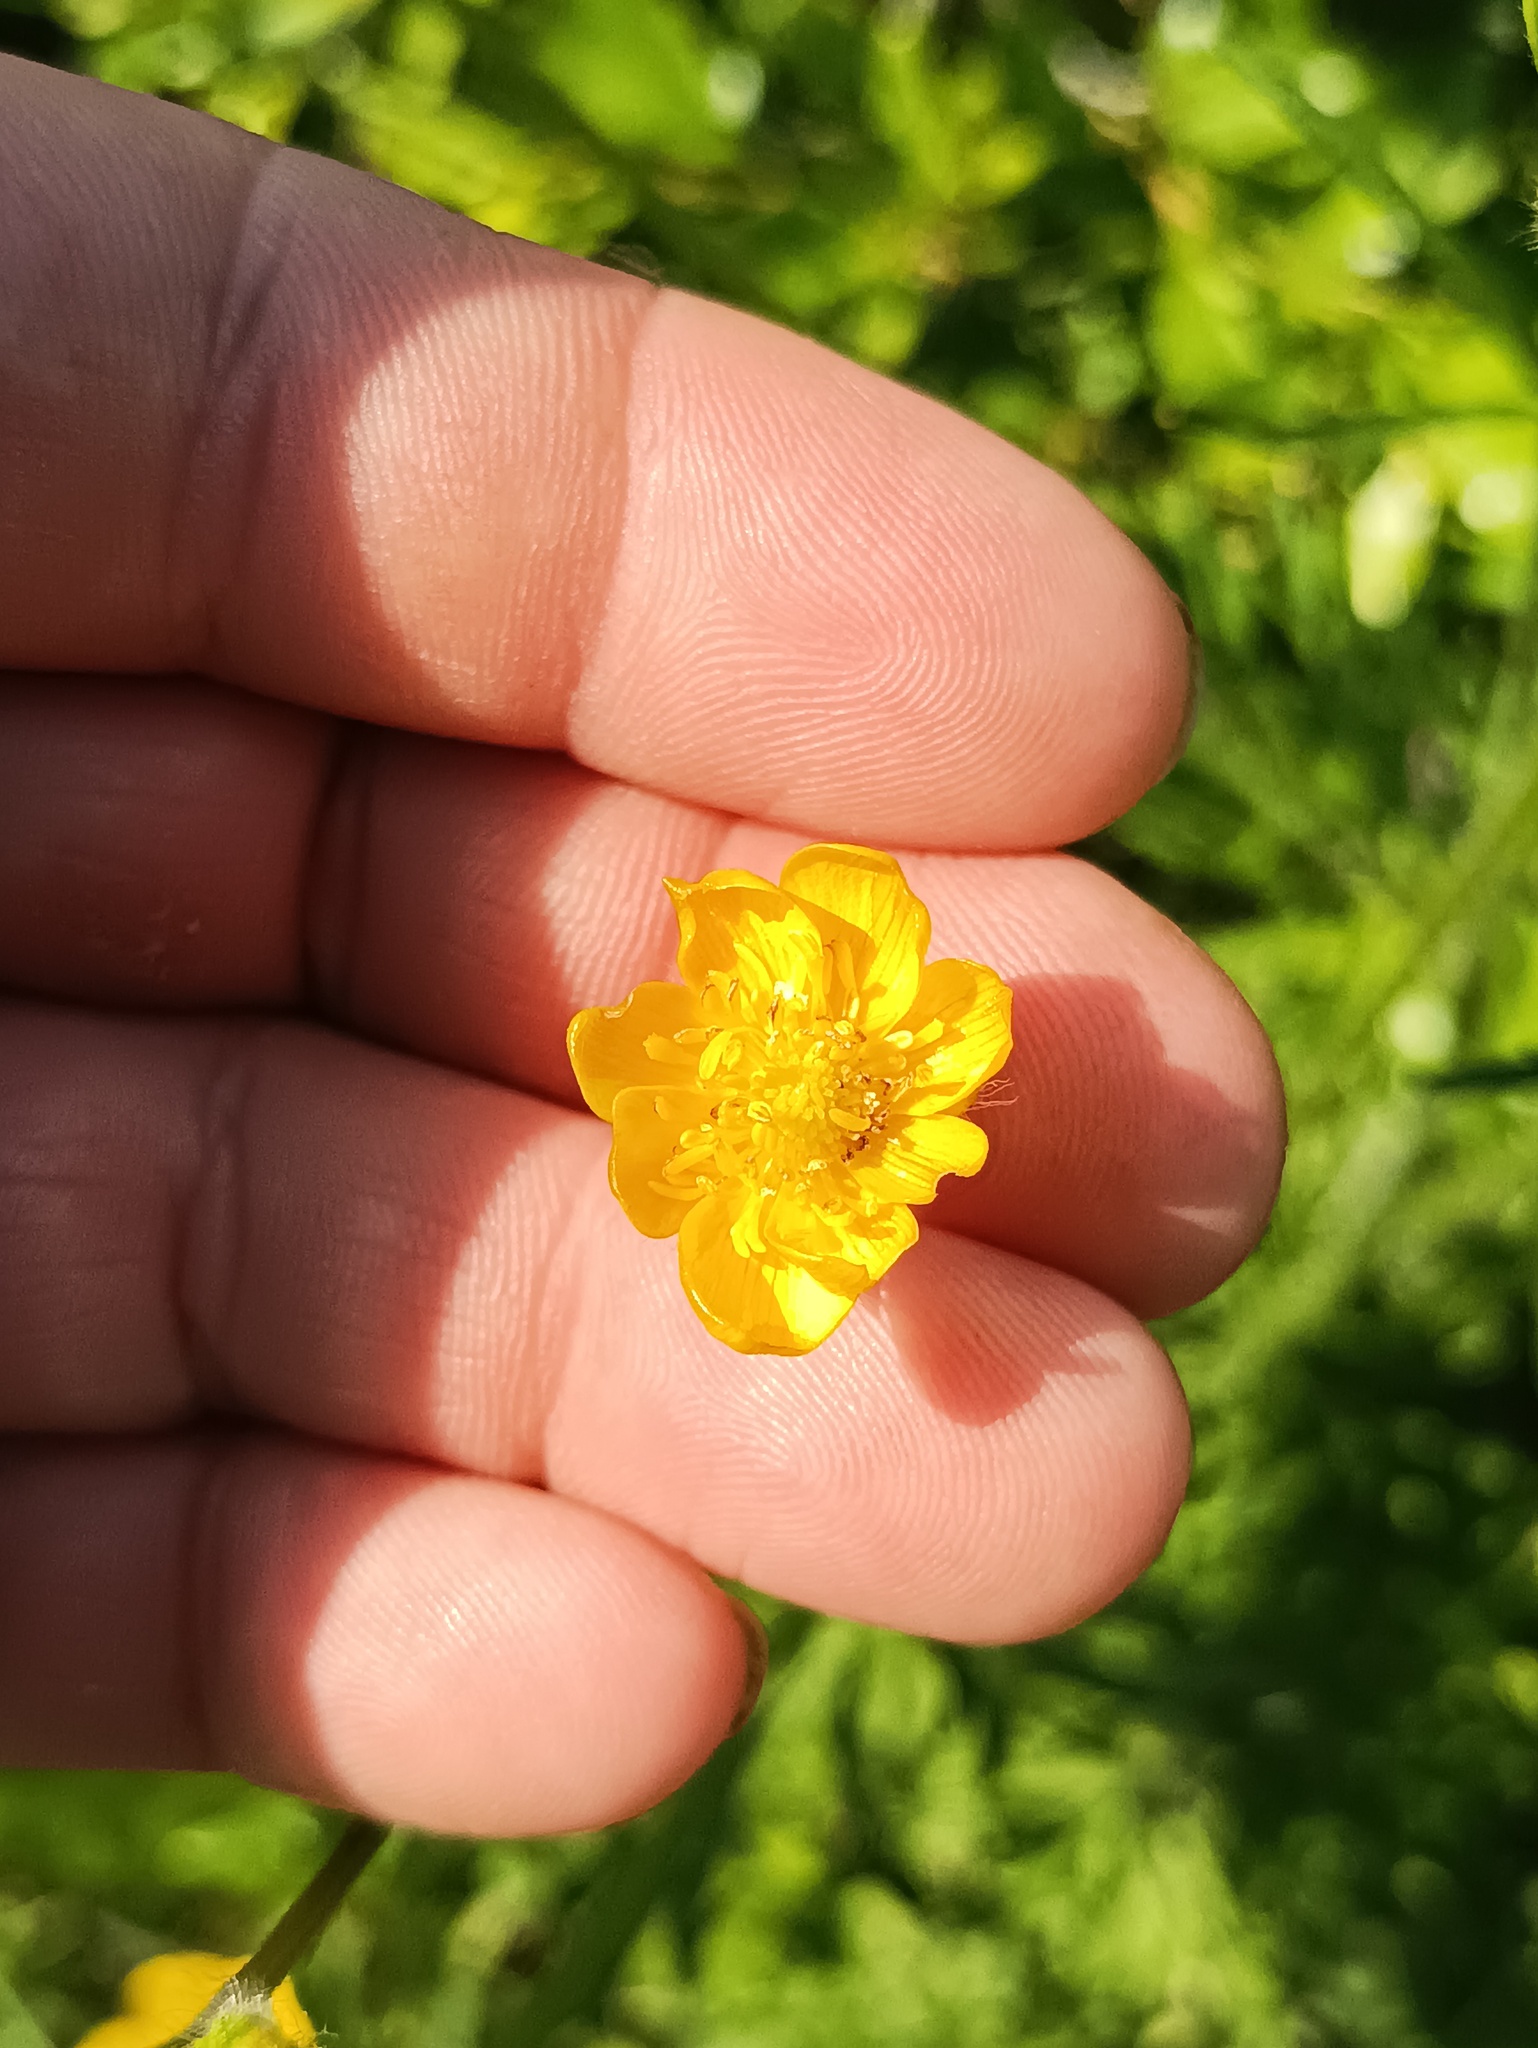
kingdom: Plantae
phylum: Tracheophyta
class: Magnoliopsida
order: Ranunculales
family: Ranunculaceae
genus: Ranunculus
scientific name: Ranunculus polyanthemos
